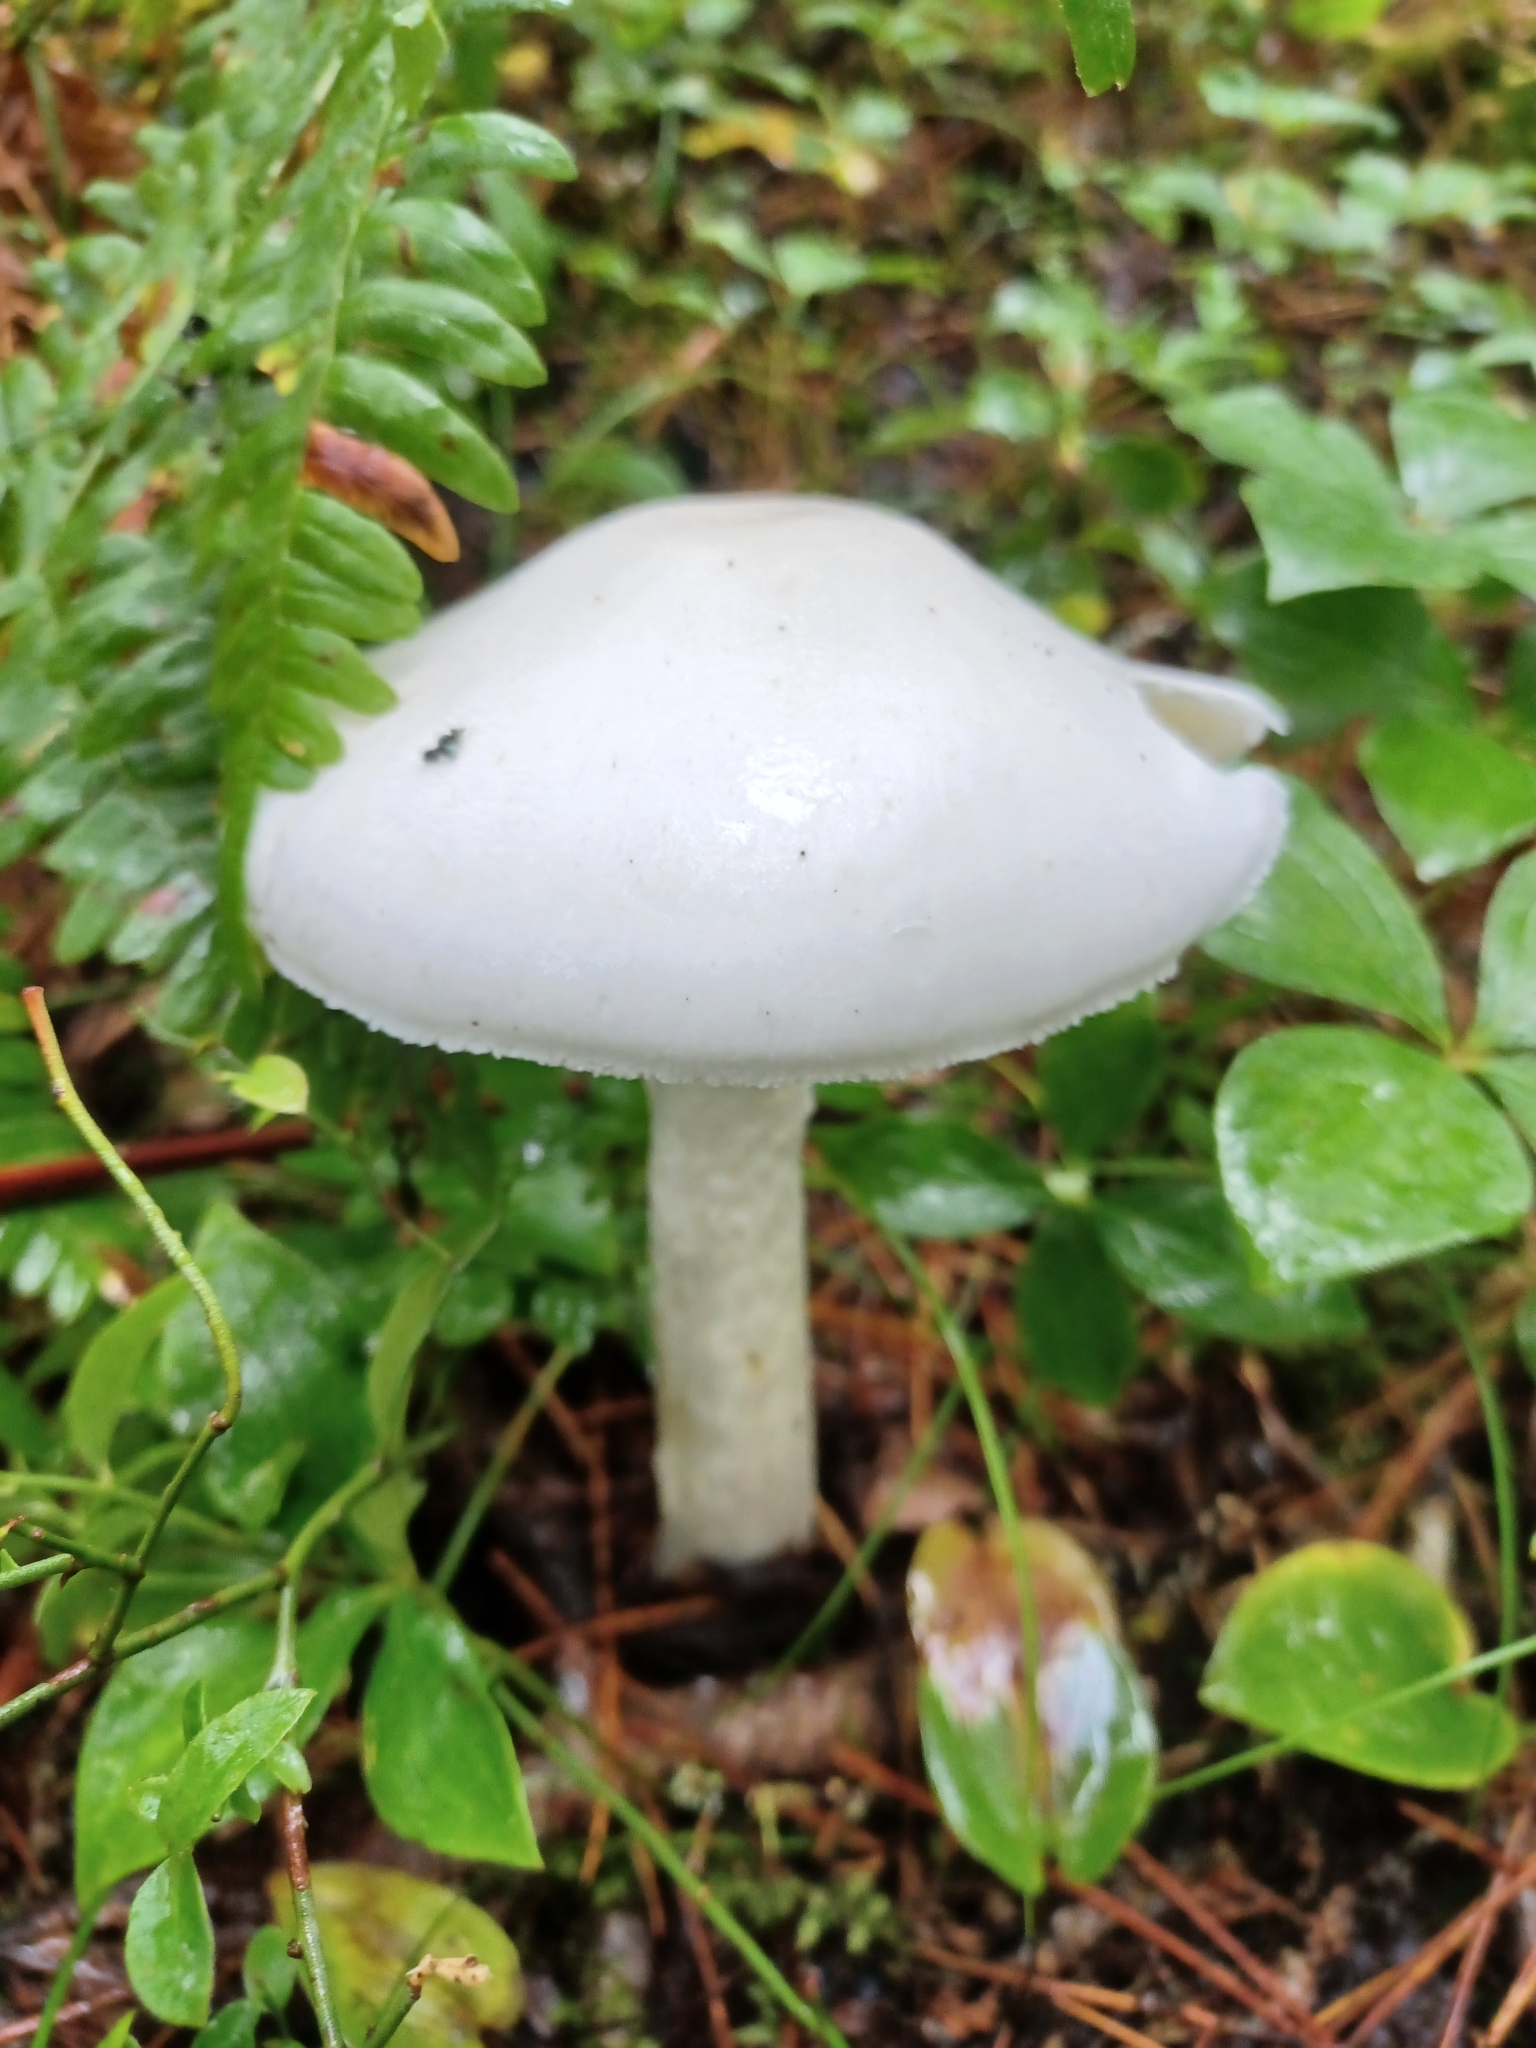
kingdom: Fungi
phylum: Basidiomycota
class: Agaricomycetes
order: Agaricales
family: Amanitaceae
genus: Amanita
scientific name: Amanita bisporigera
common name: Eastern north american destroying angel
